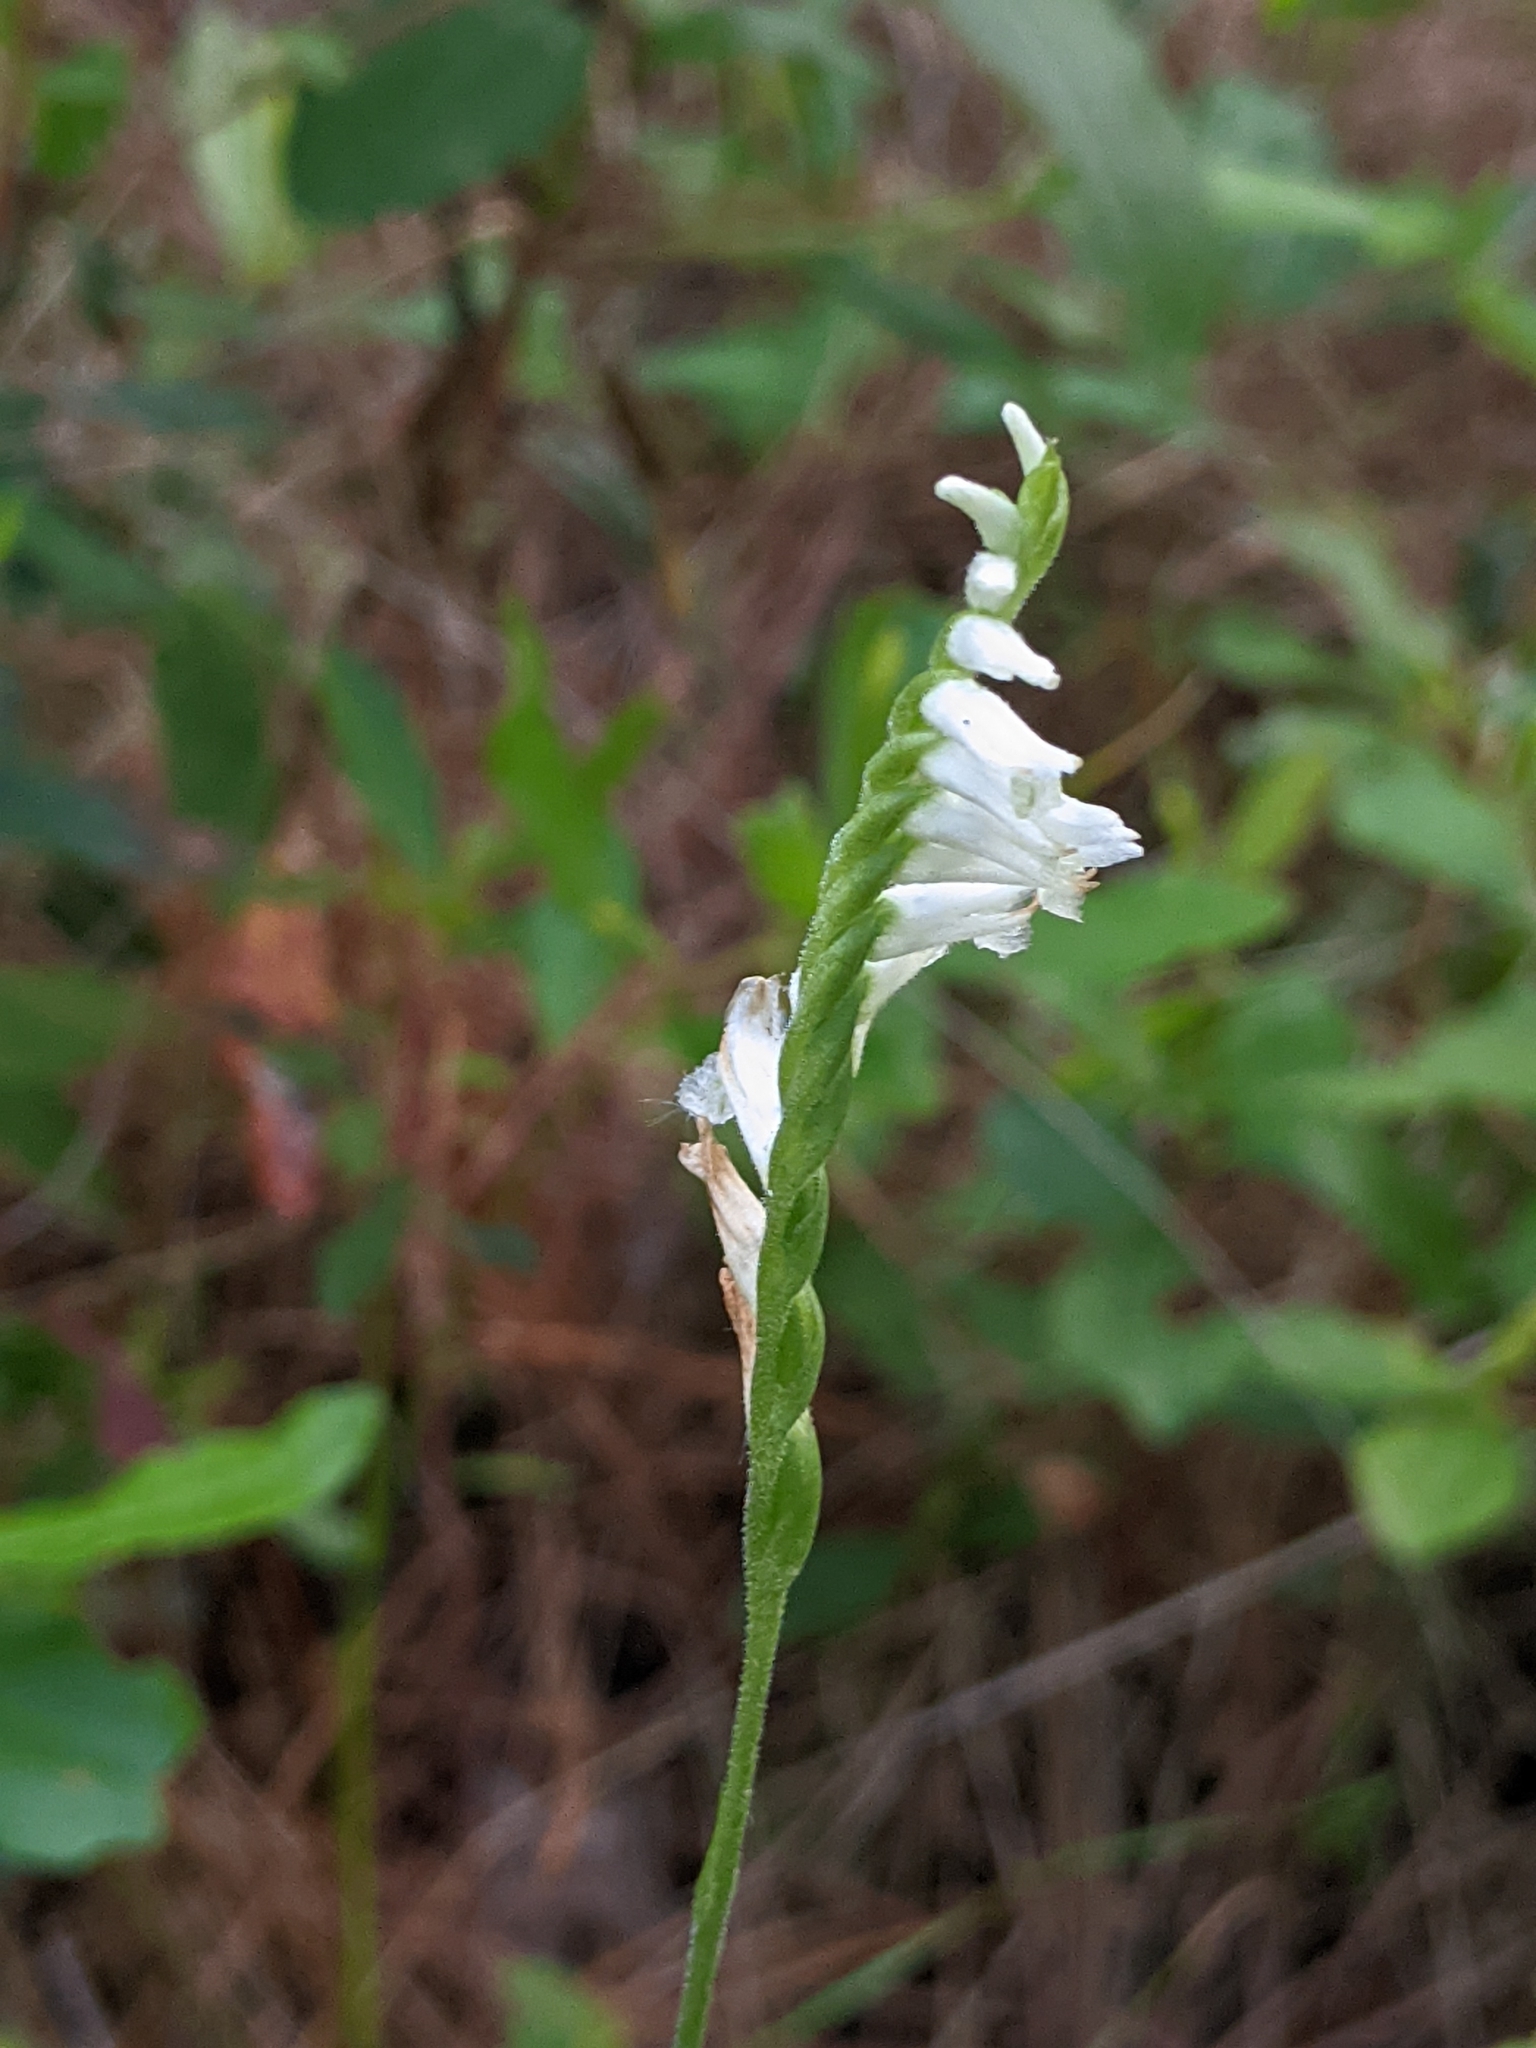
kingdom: Plantae
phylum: Tracheophyta
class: Liliopsida
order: Asparagales
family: Orchidaceae
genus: Spiranthes
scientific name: Spiranthes praecox
